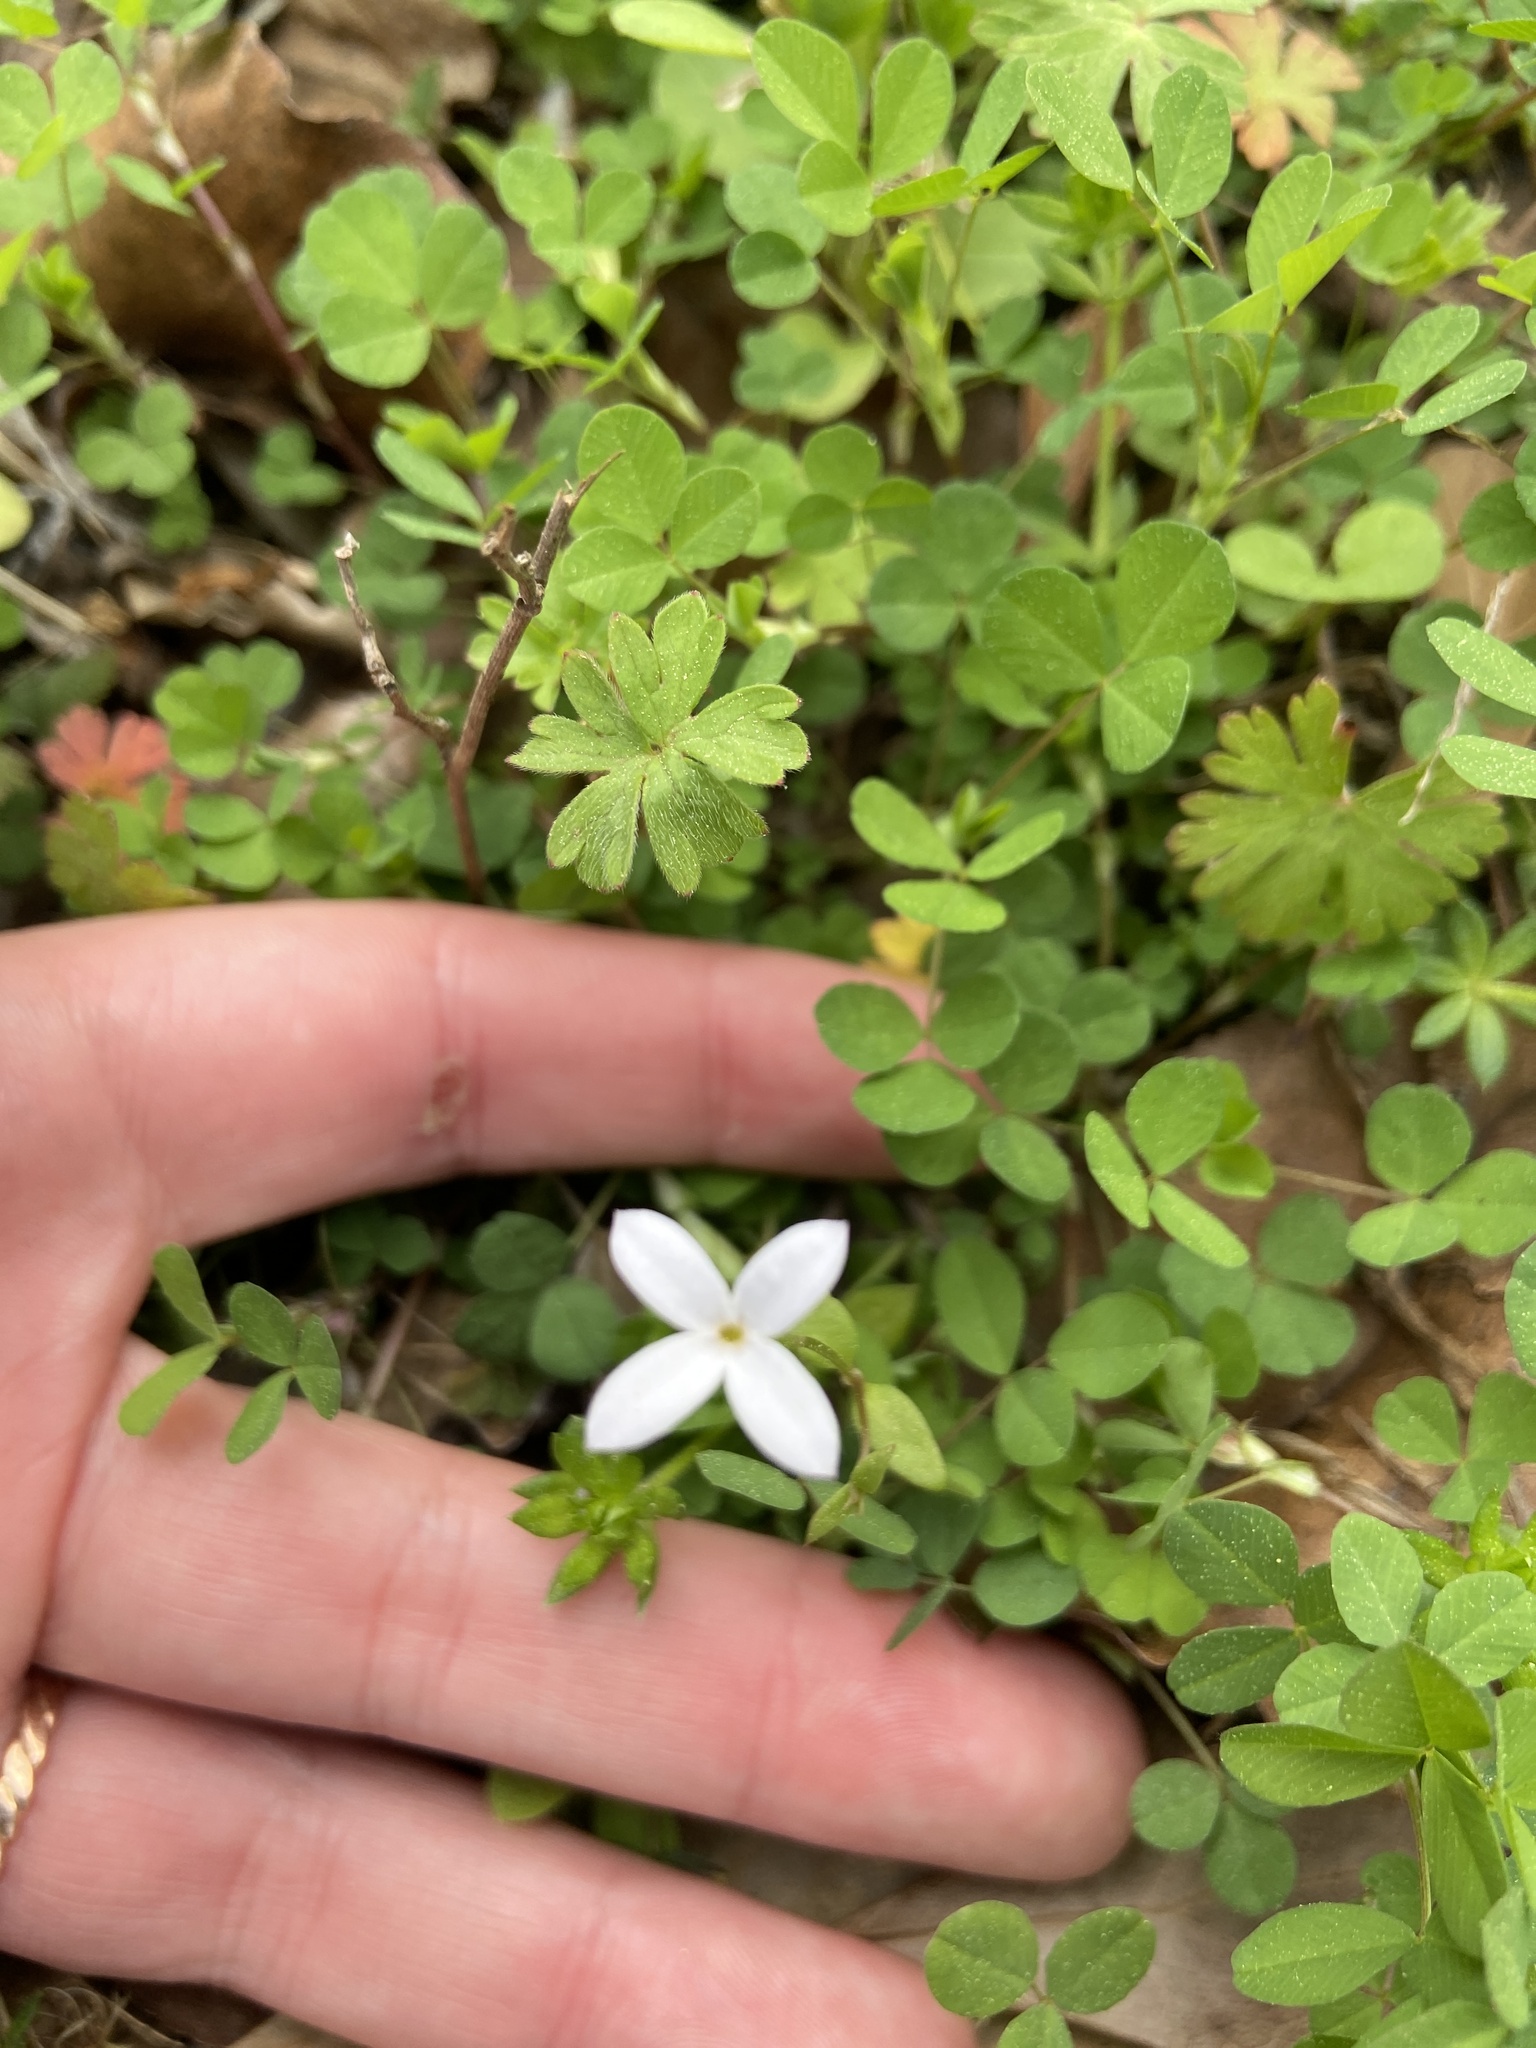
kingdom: Plantae
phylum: Tracheophyta
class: Magnoliopsida
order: Gentianales
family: Rubiaceae
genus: Houstonia
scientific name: Houstonia micrantha
